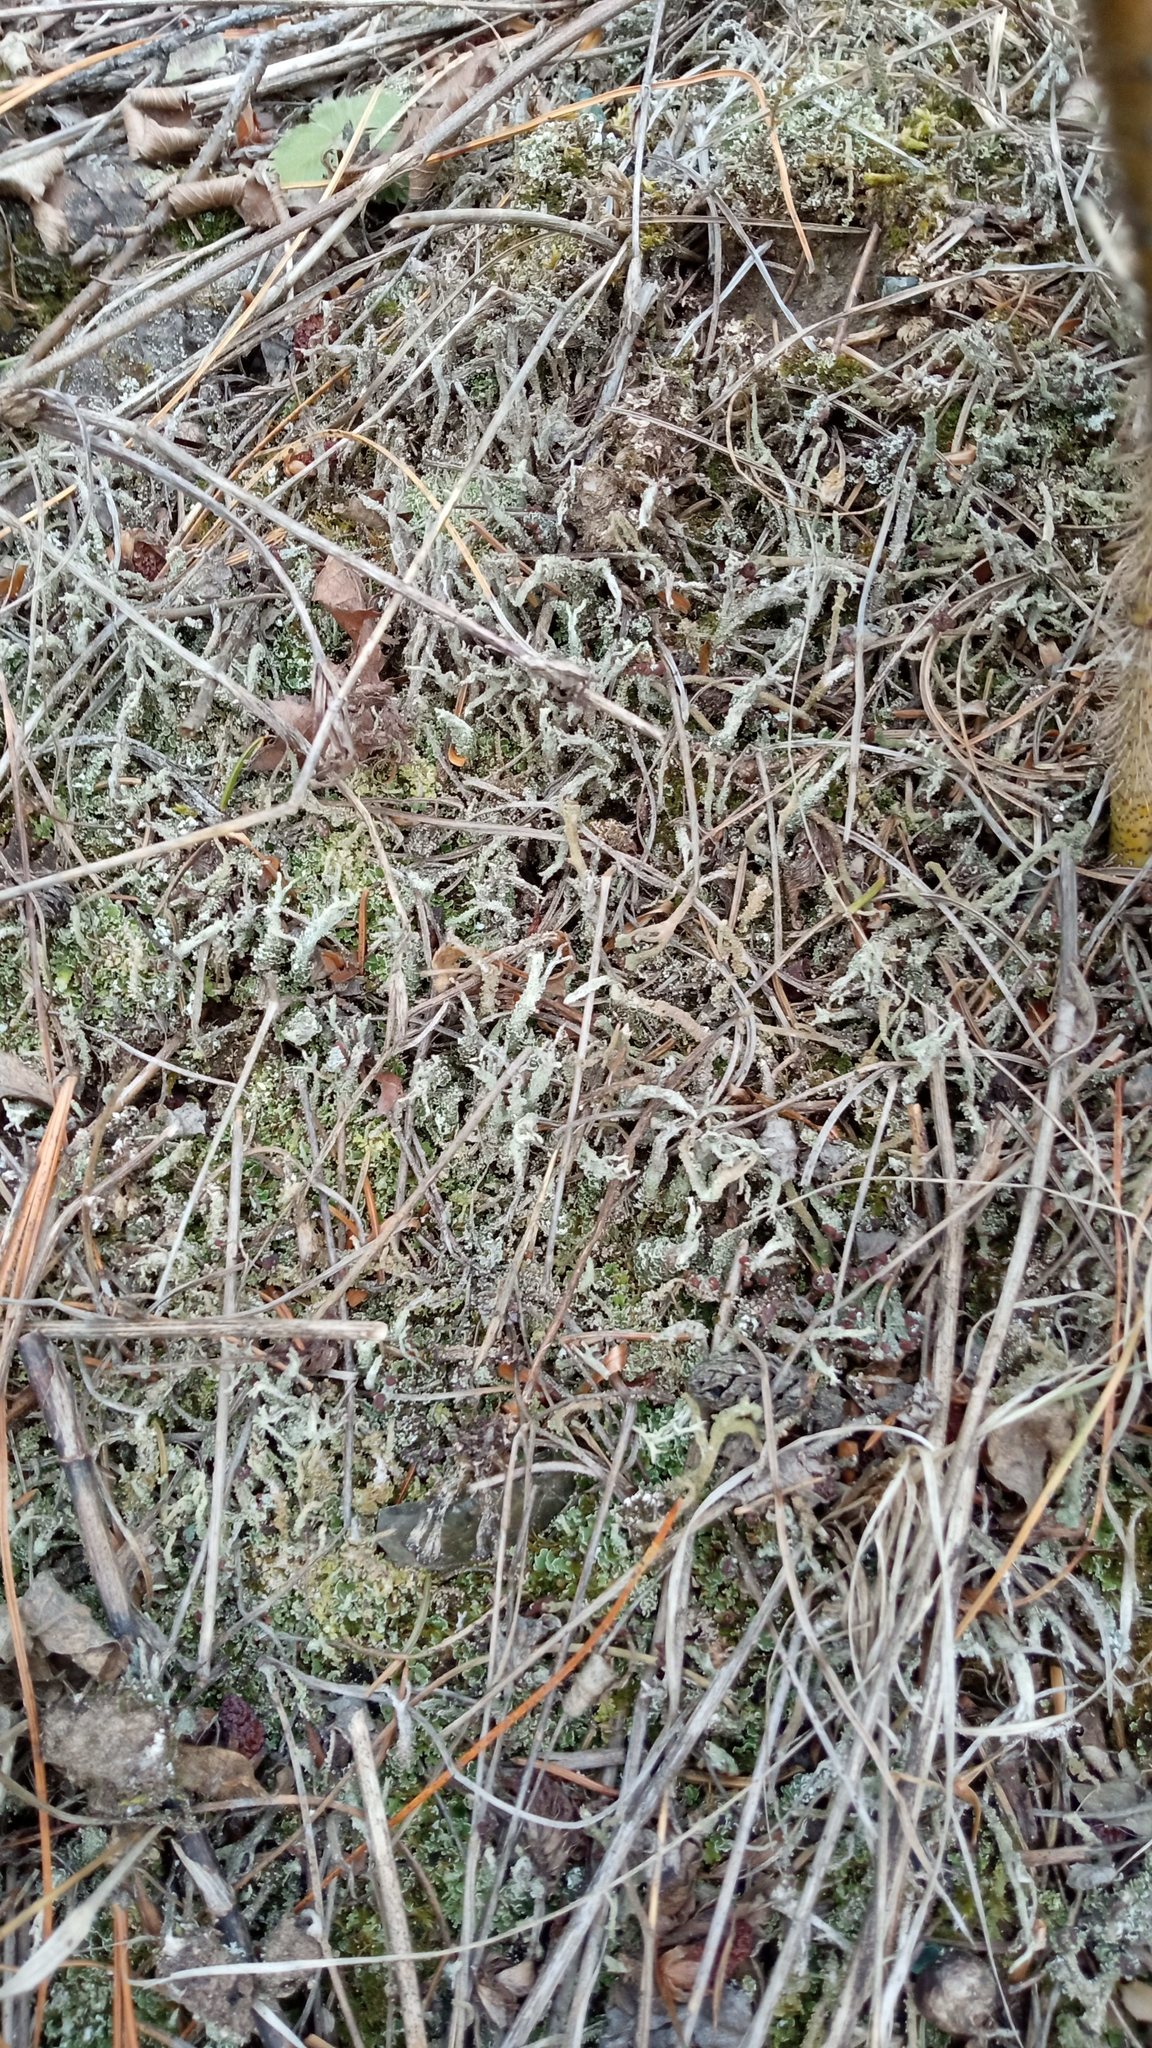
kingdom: Fungi
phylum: Ascomycota
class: Lecanoromycetes
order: Lecanorales
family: Cladoniaceae
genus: Cladonia
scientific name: Cladonia cenotea
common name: Powdered funnel lichen
